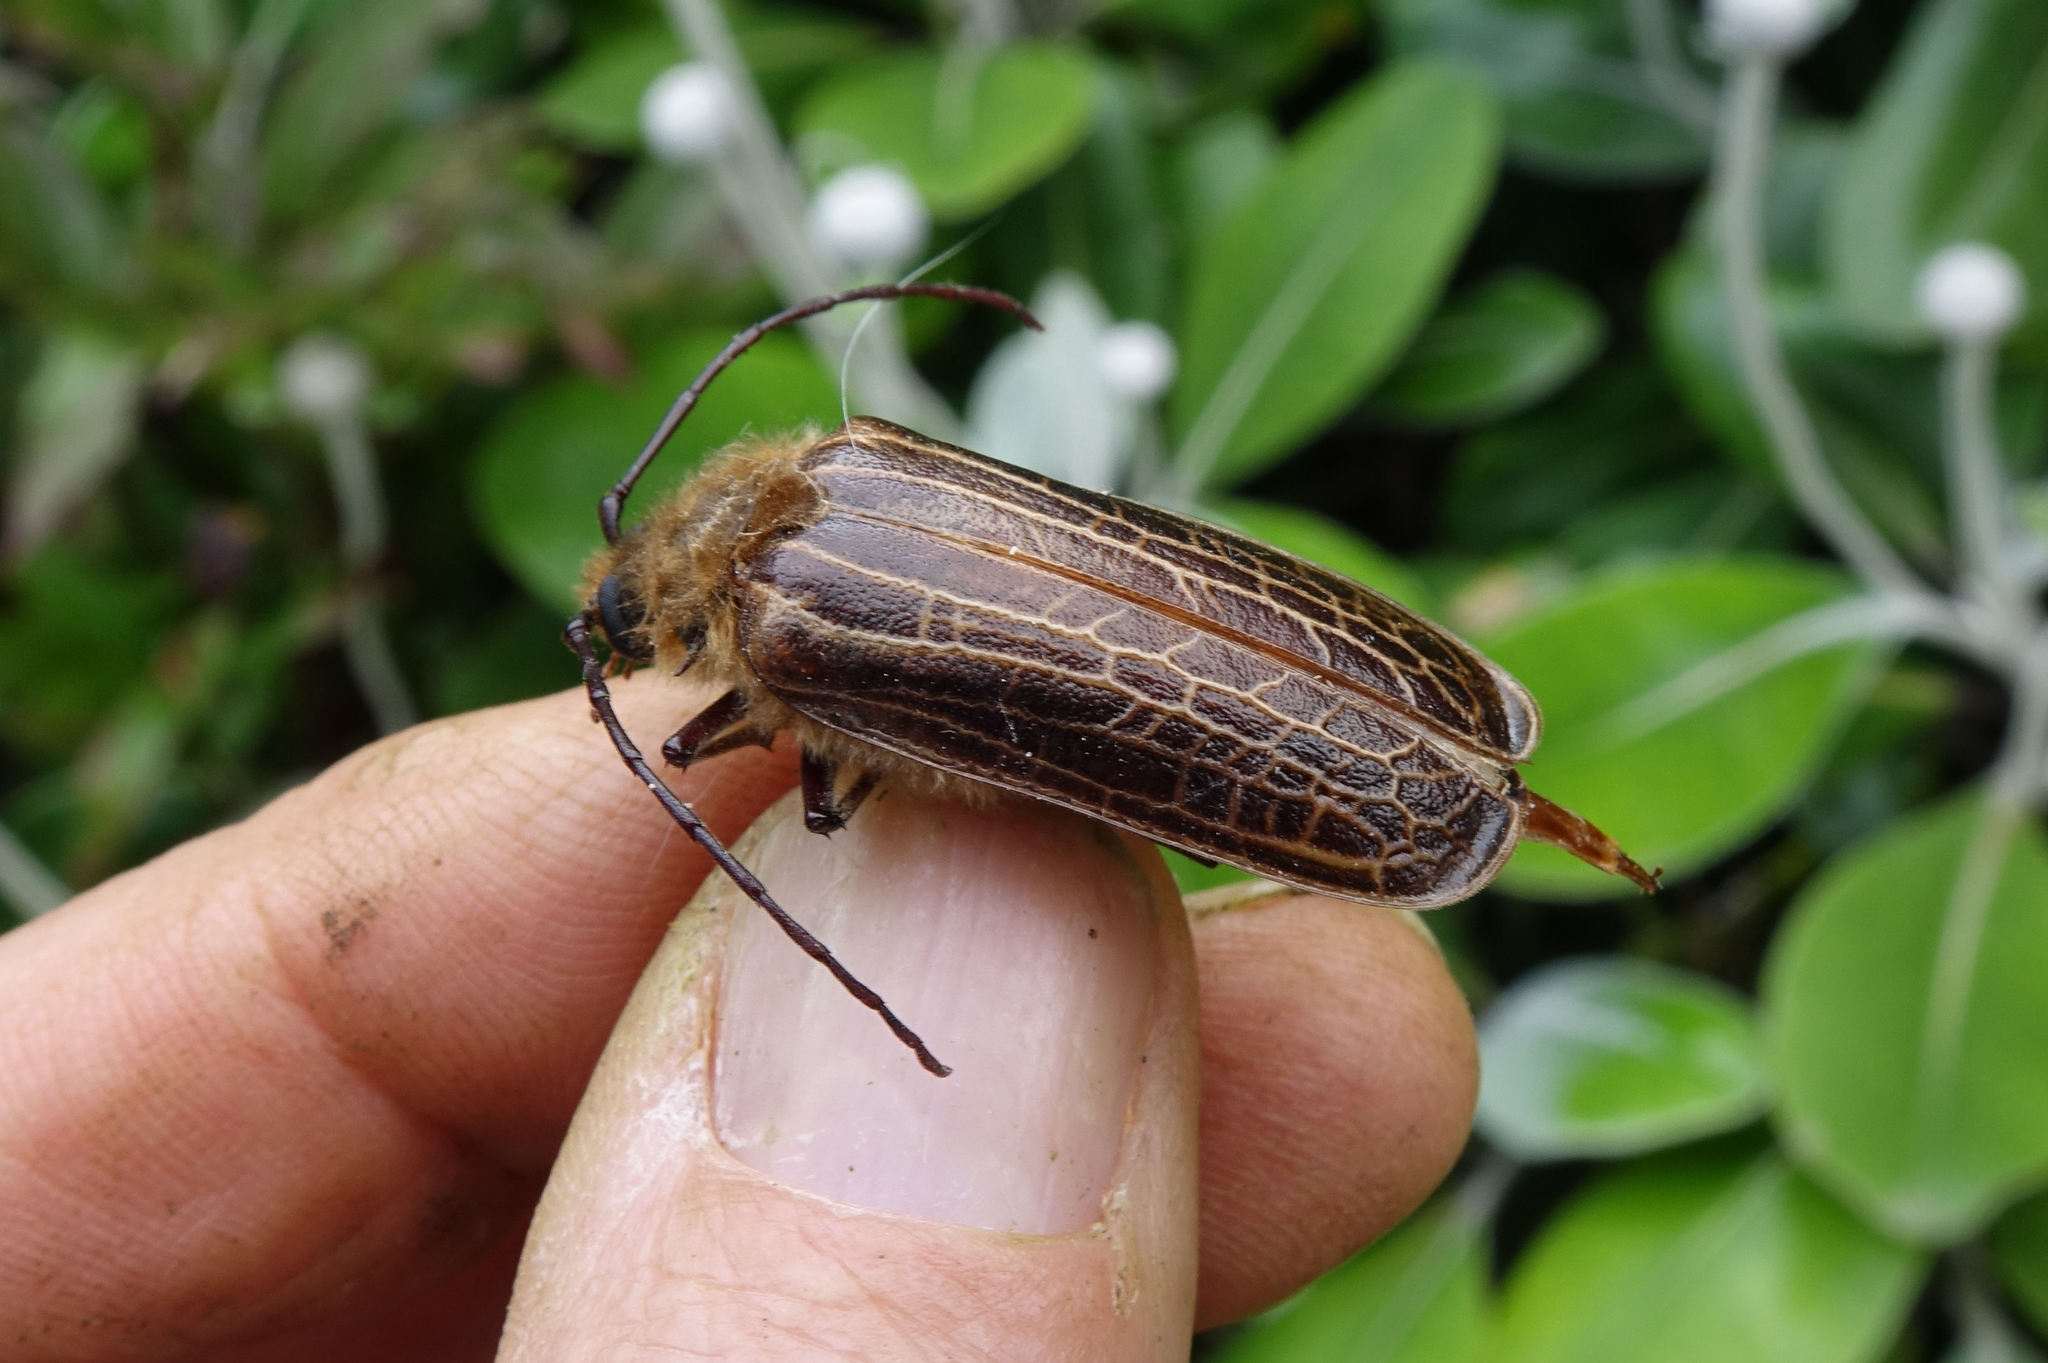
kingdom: Animalia
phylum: Arthropoda
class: Insecta
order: Coleoptera
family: Cerambycidae
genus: Prionoplus
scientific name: Prionoplus reticularis
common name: Huhu beetle
